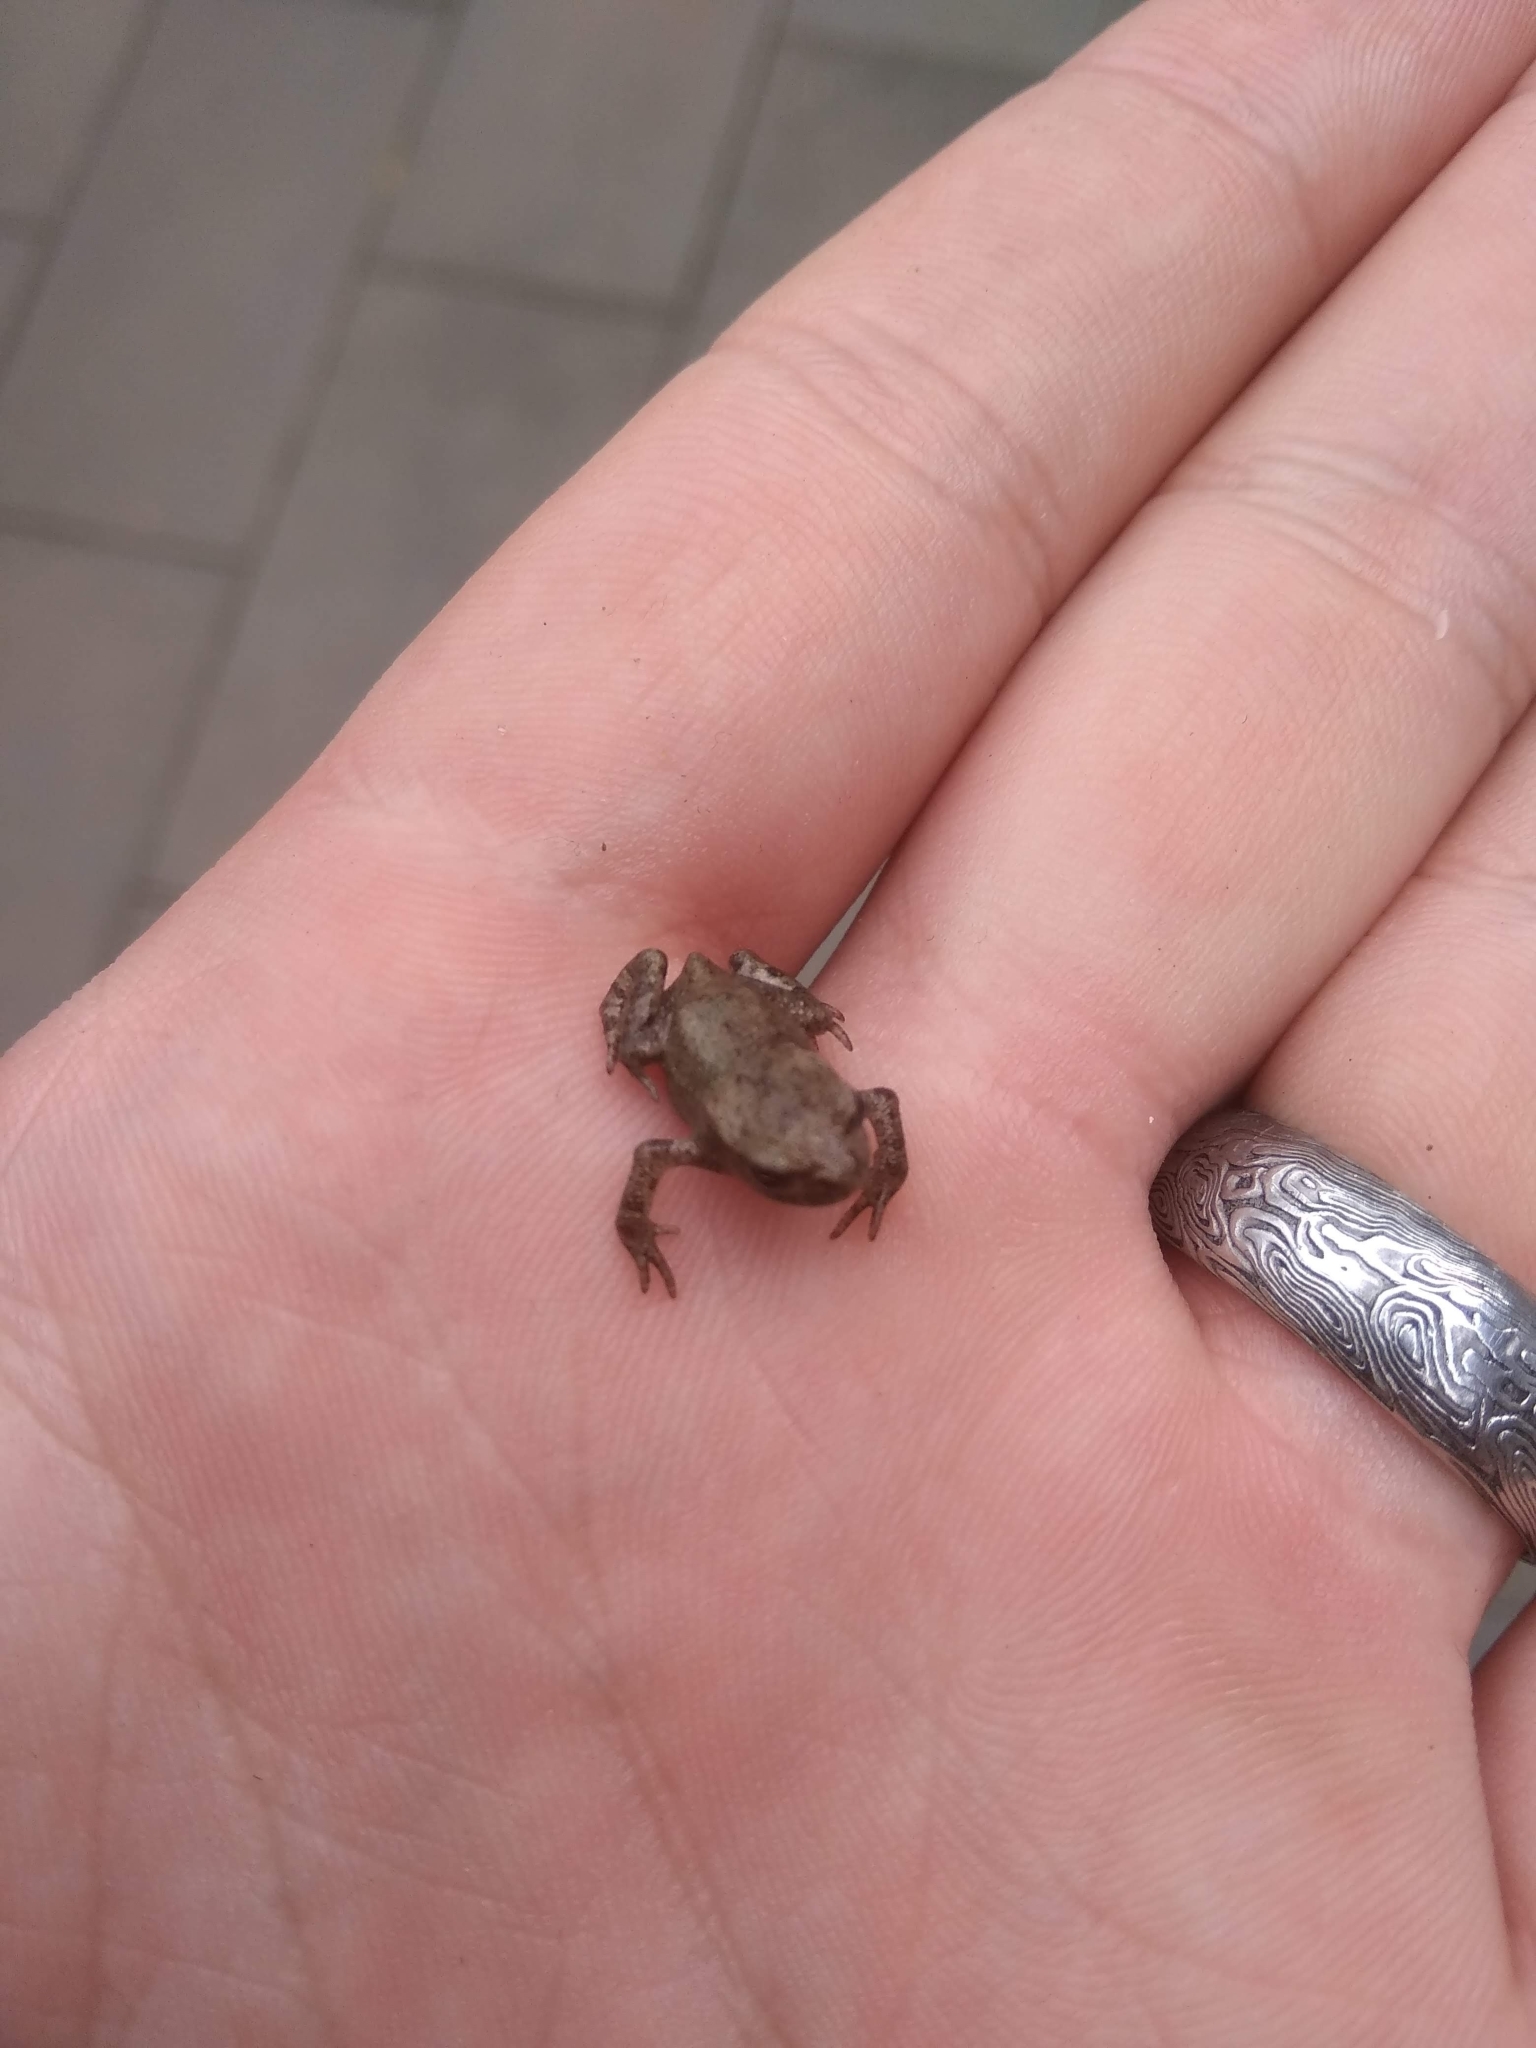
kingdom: Animalia
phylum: Chordata
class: Amphibia
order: Anura
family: Bufonidae
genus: Bufo
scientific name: Bufo bufo
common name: Common toad
